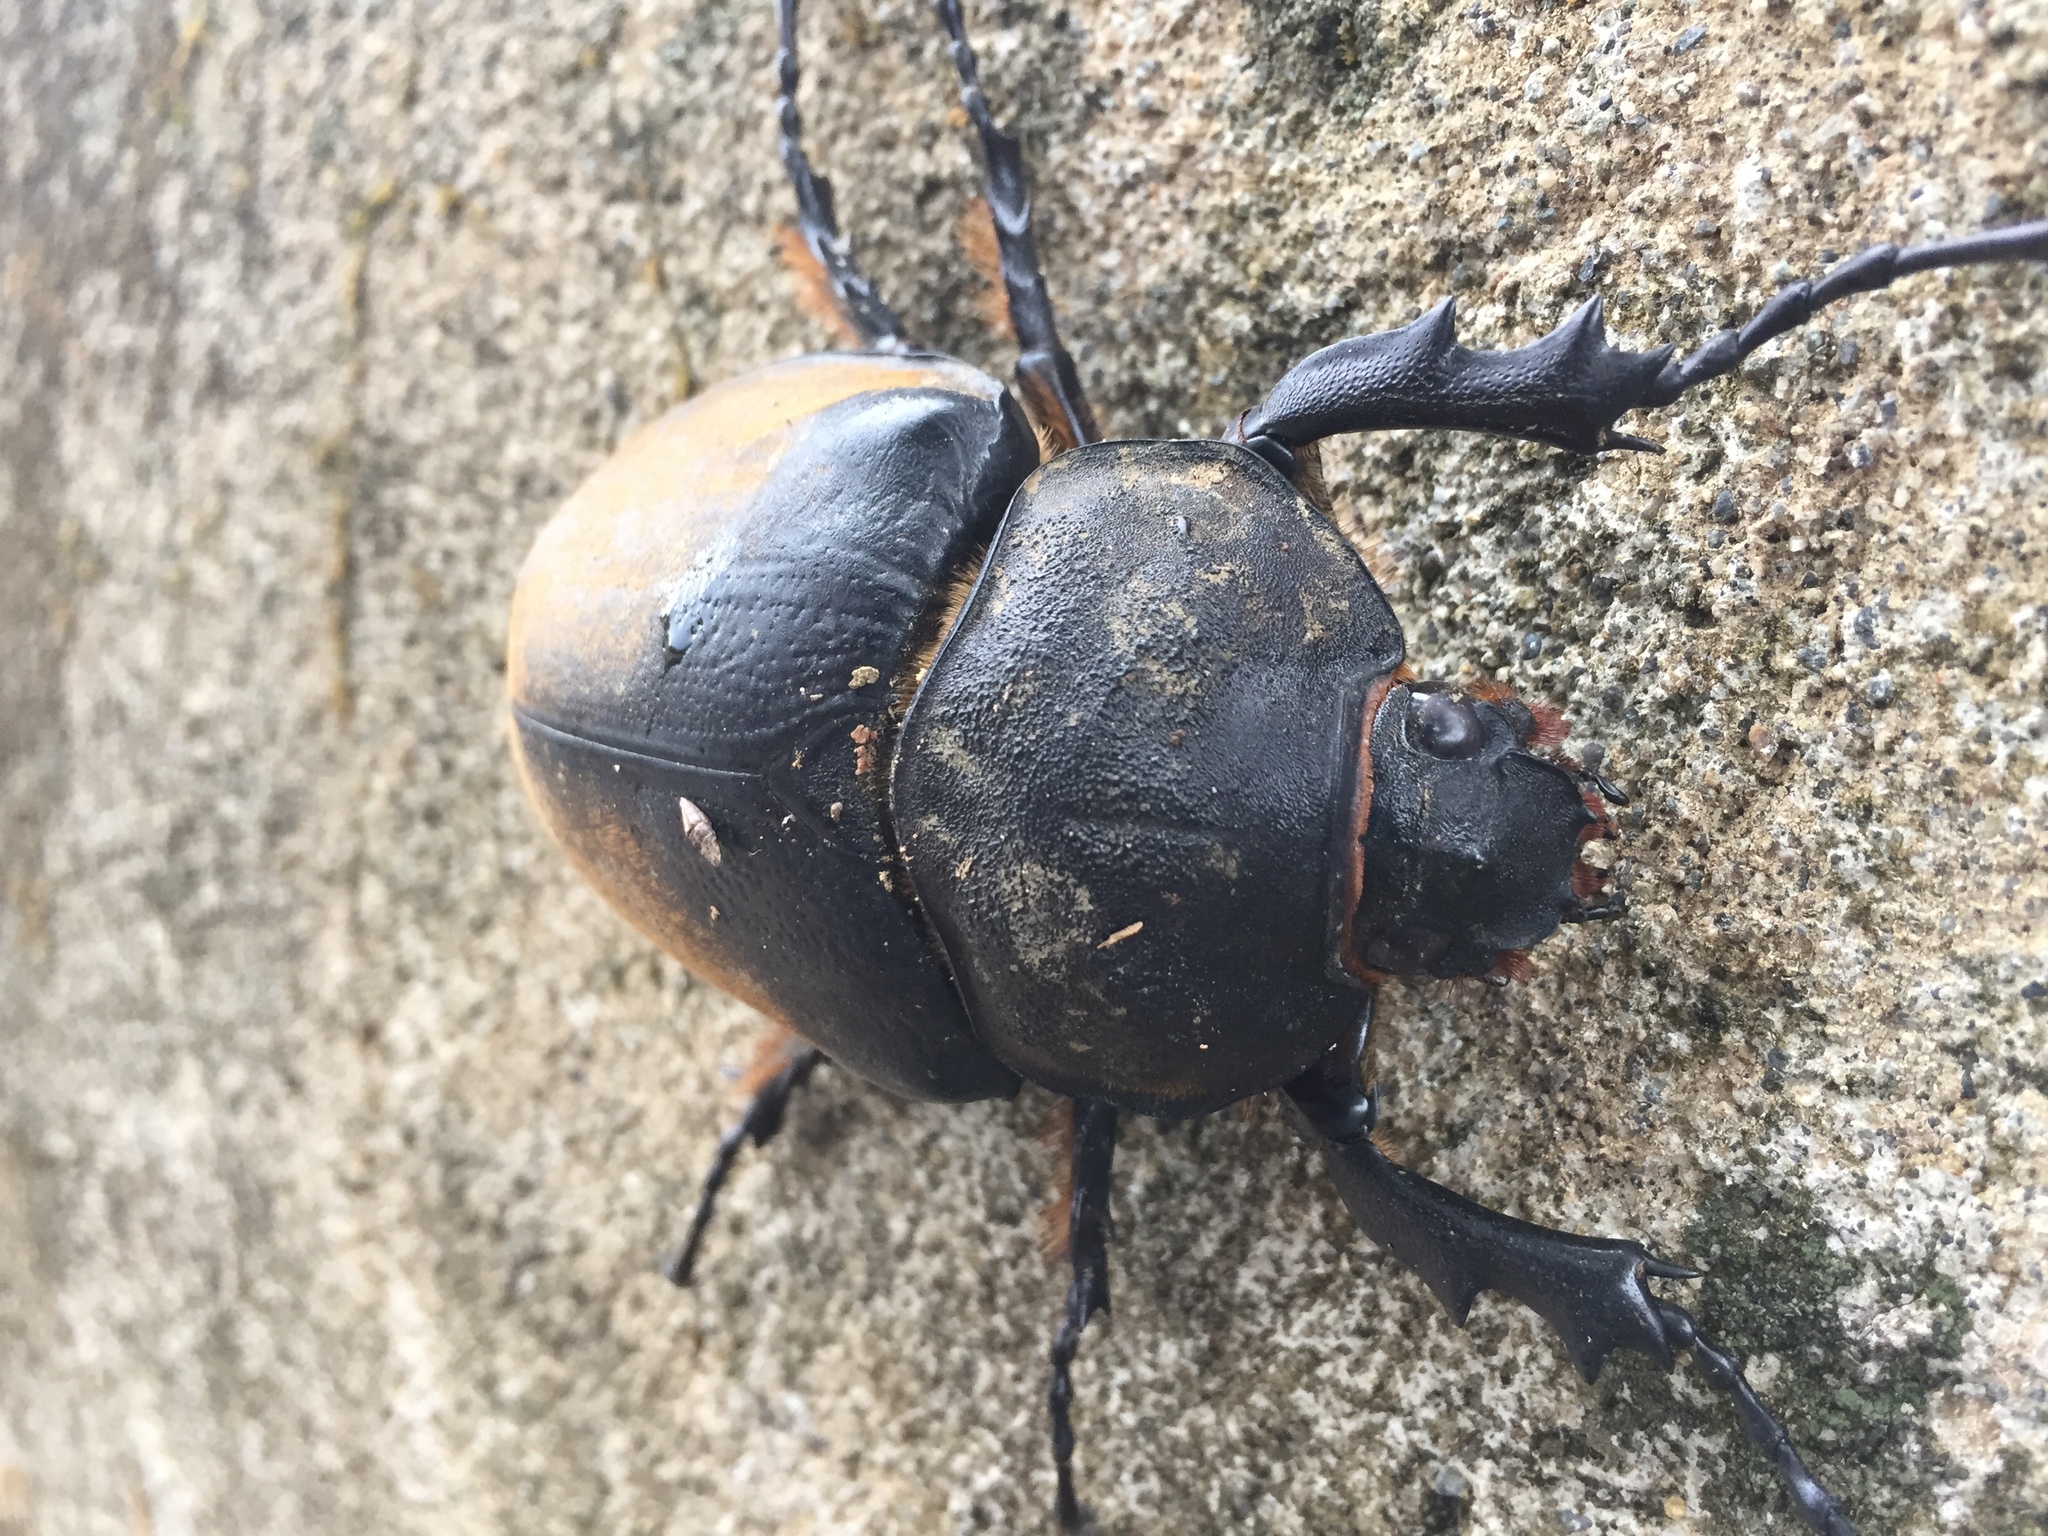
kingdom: Animalia
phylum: Arthropoda
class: Insecta
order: Coleoptera
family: Scarabaeidae
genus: Megasoma
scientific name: Megasoma elephas
